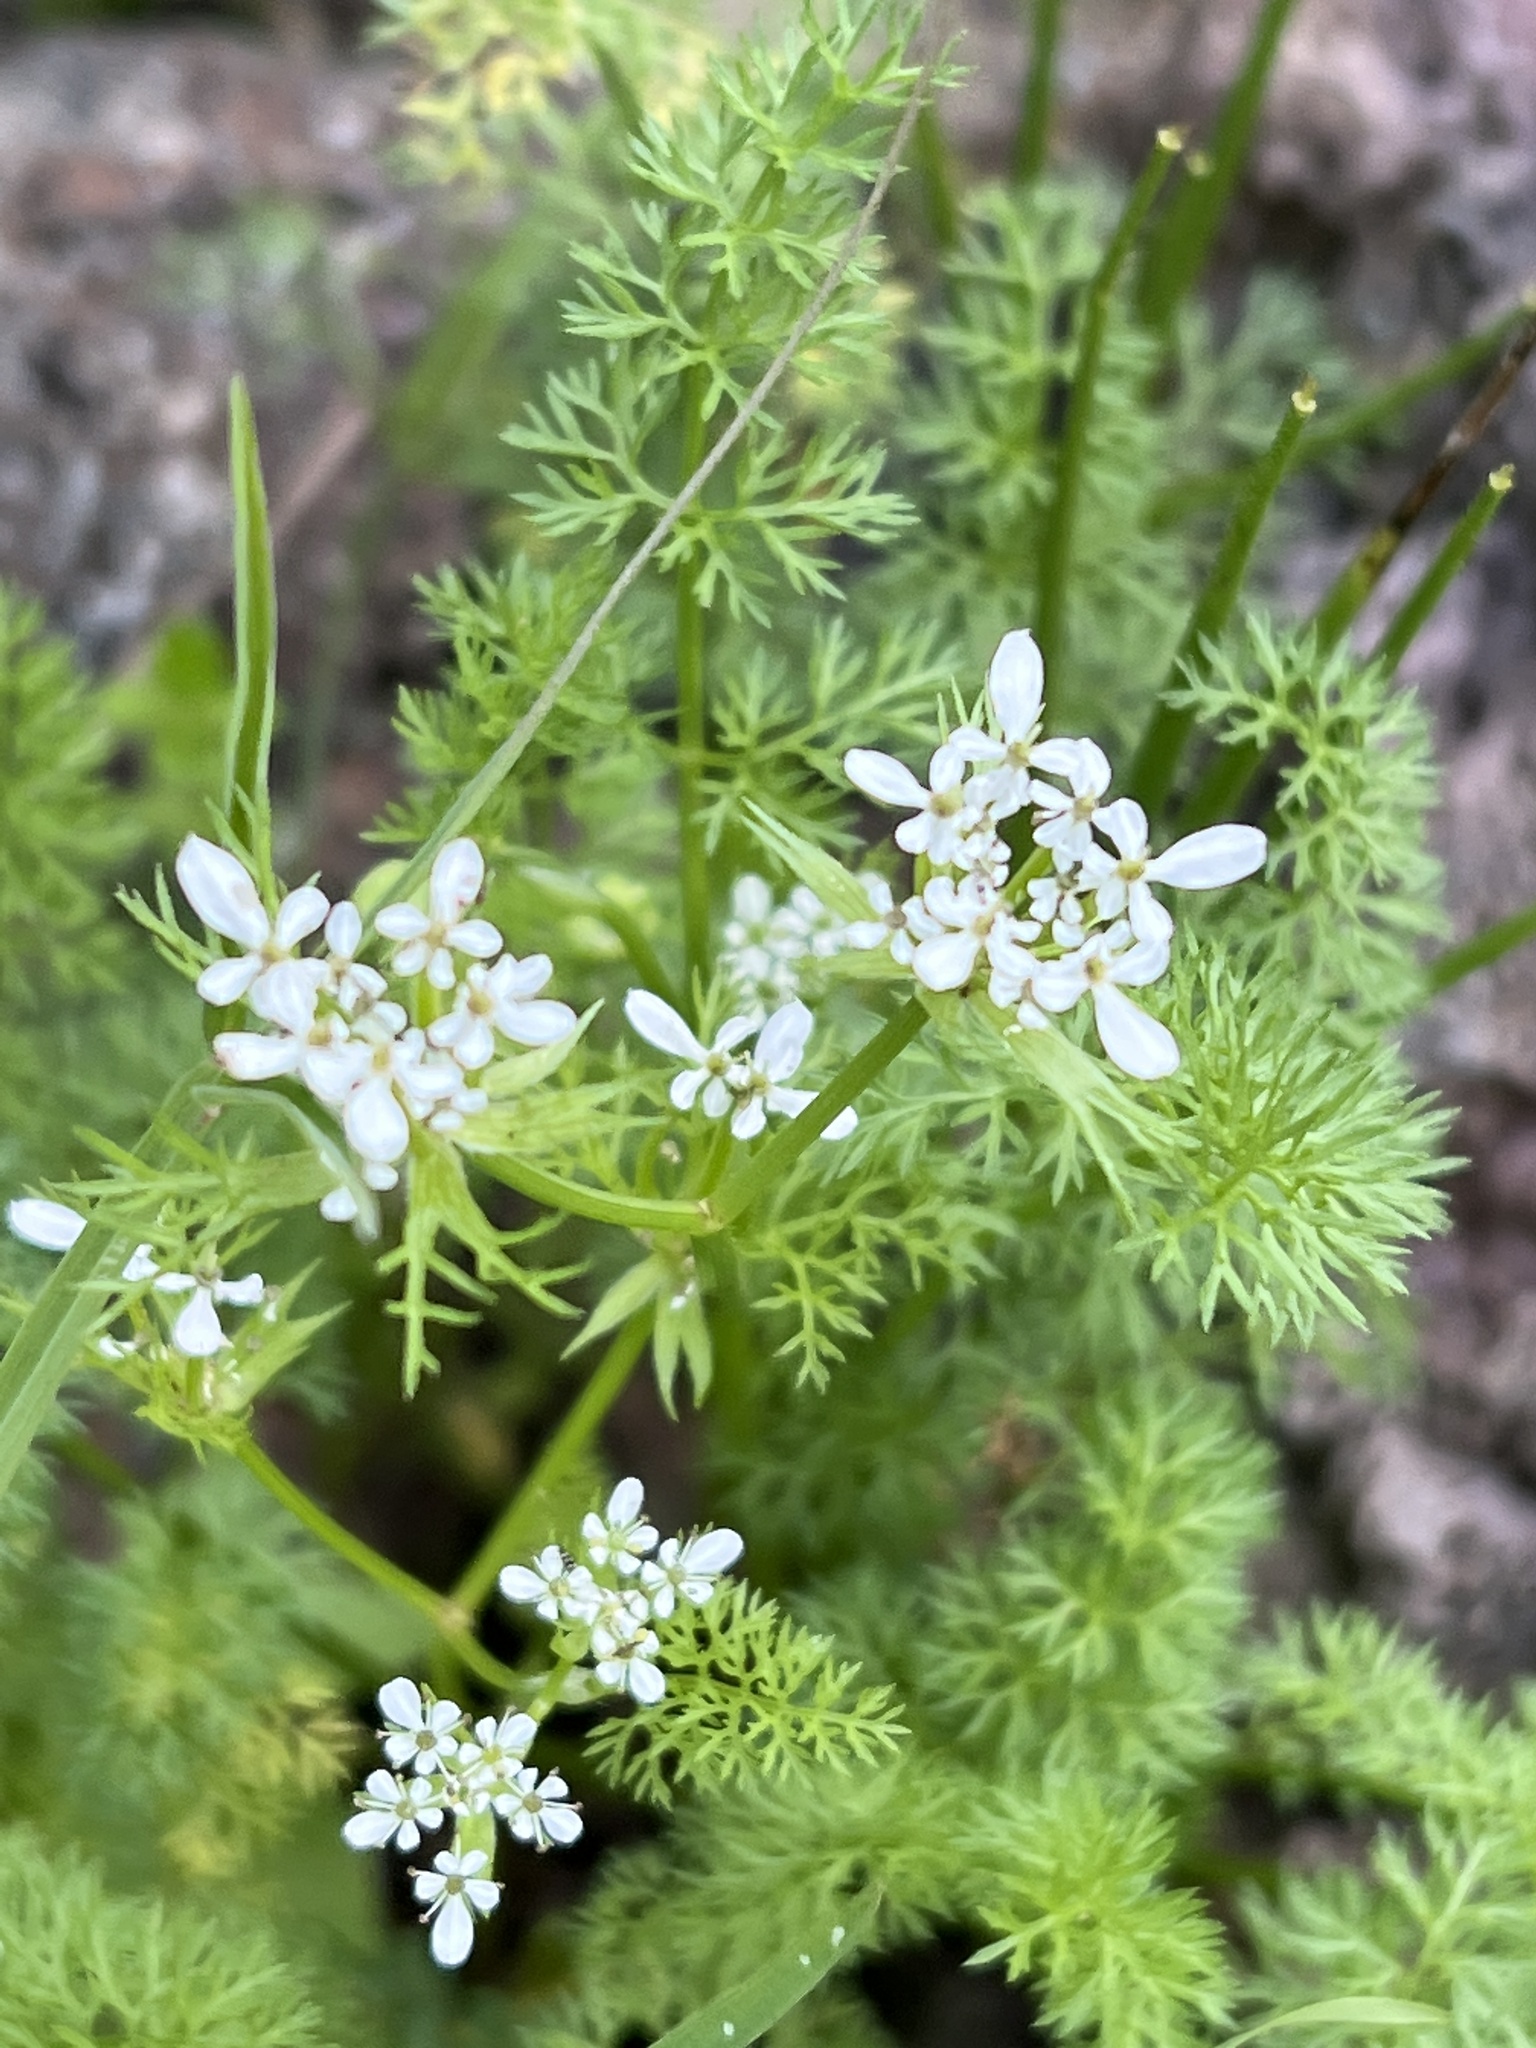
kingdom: Plantae
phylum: Tracheophyta
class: Magnoliopsida
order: Apiales
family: Apiaceae
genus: Scandix
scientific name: Scandix pecten-veneris
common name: Shepherd's-needle
